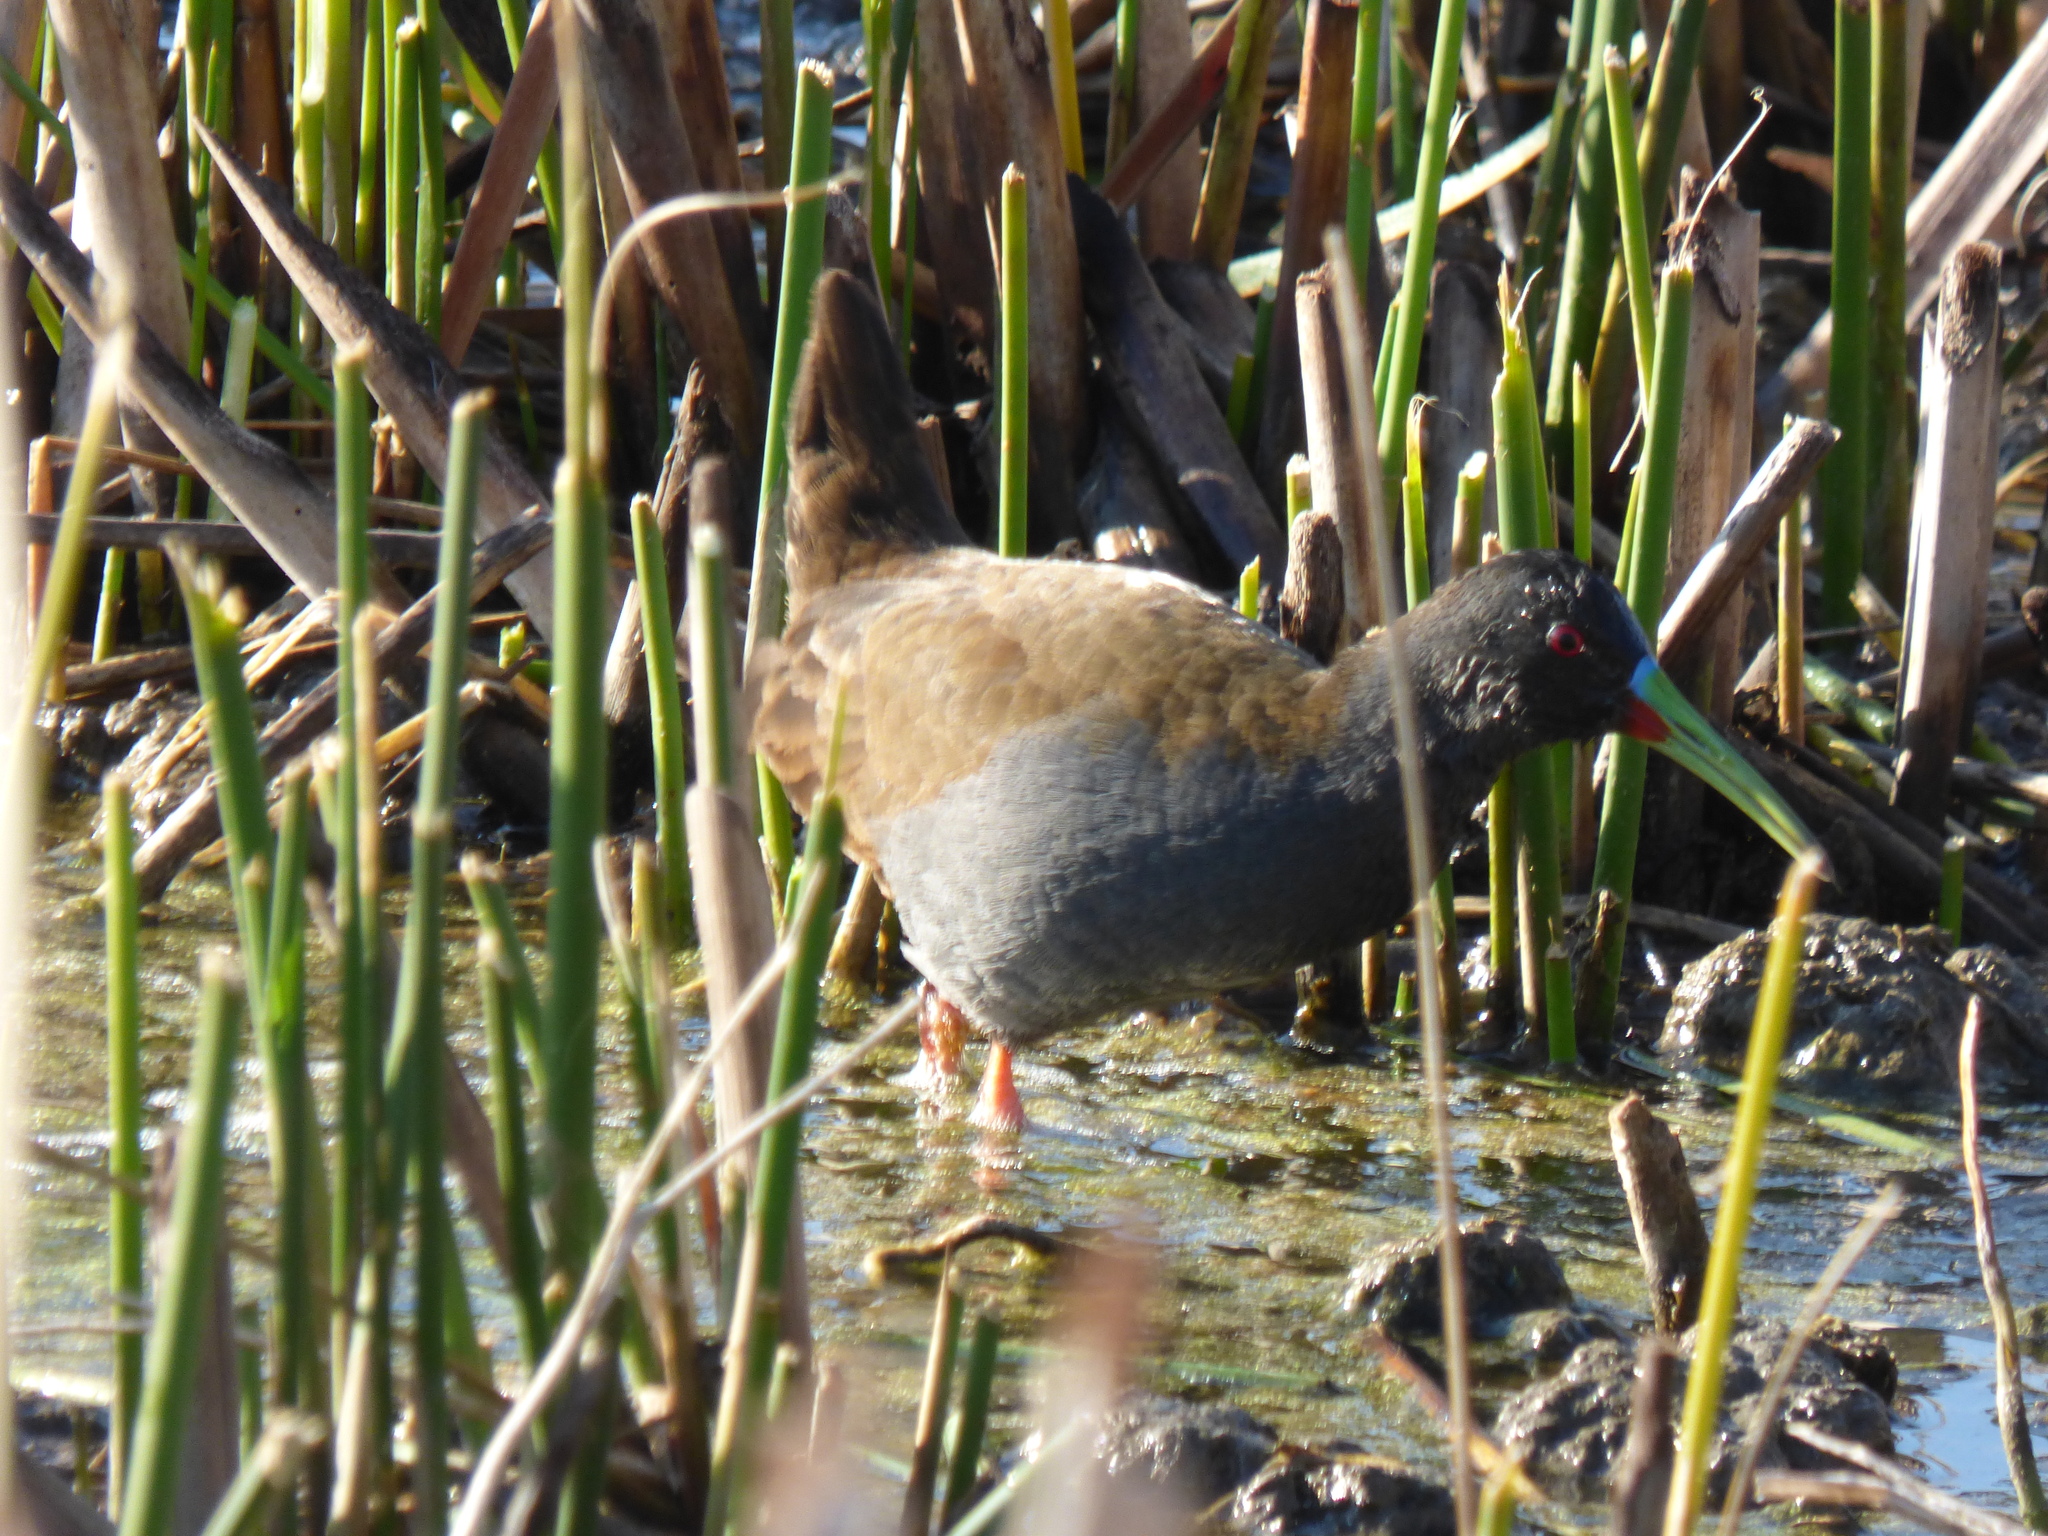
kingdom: Animalia
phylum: Chordata
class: Aves
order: Gruiformes
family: Rallidae
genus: Pardirallus
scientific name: Pardirallus sanguinolentus
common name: Plumbeous rail
